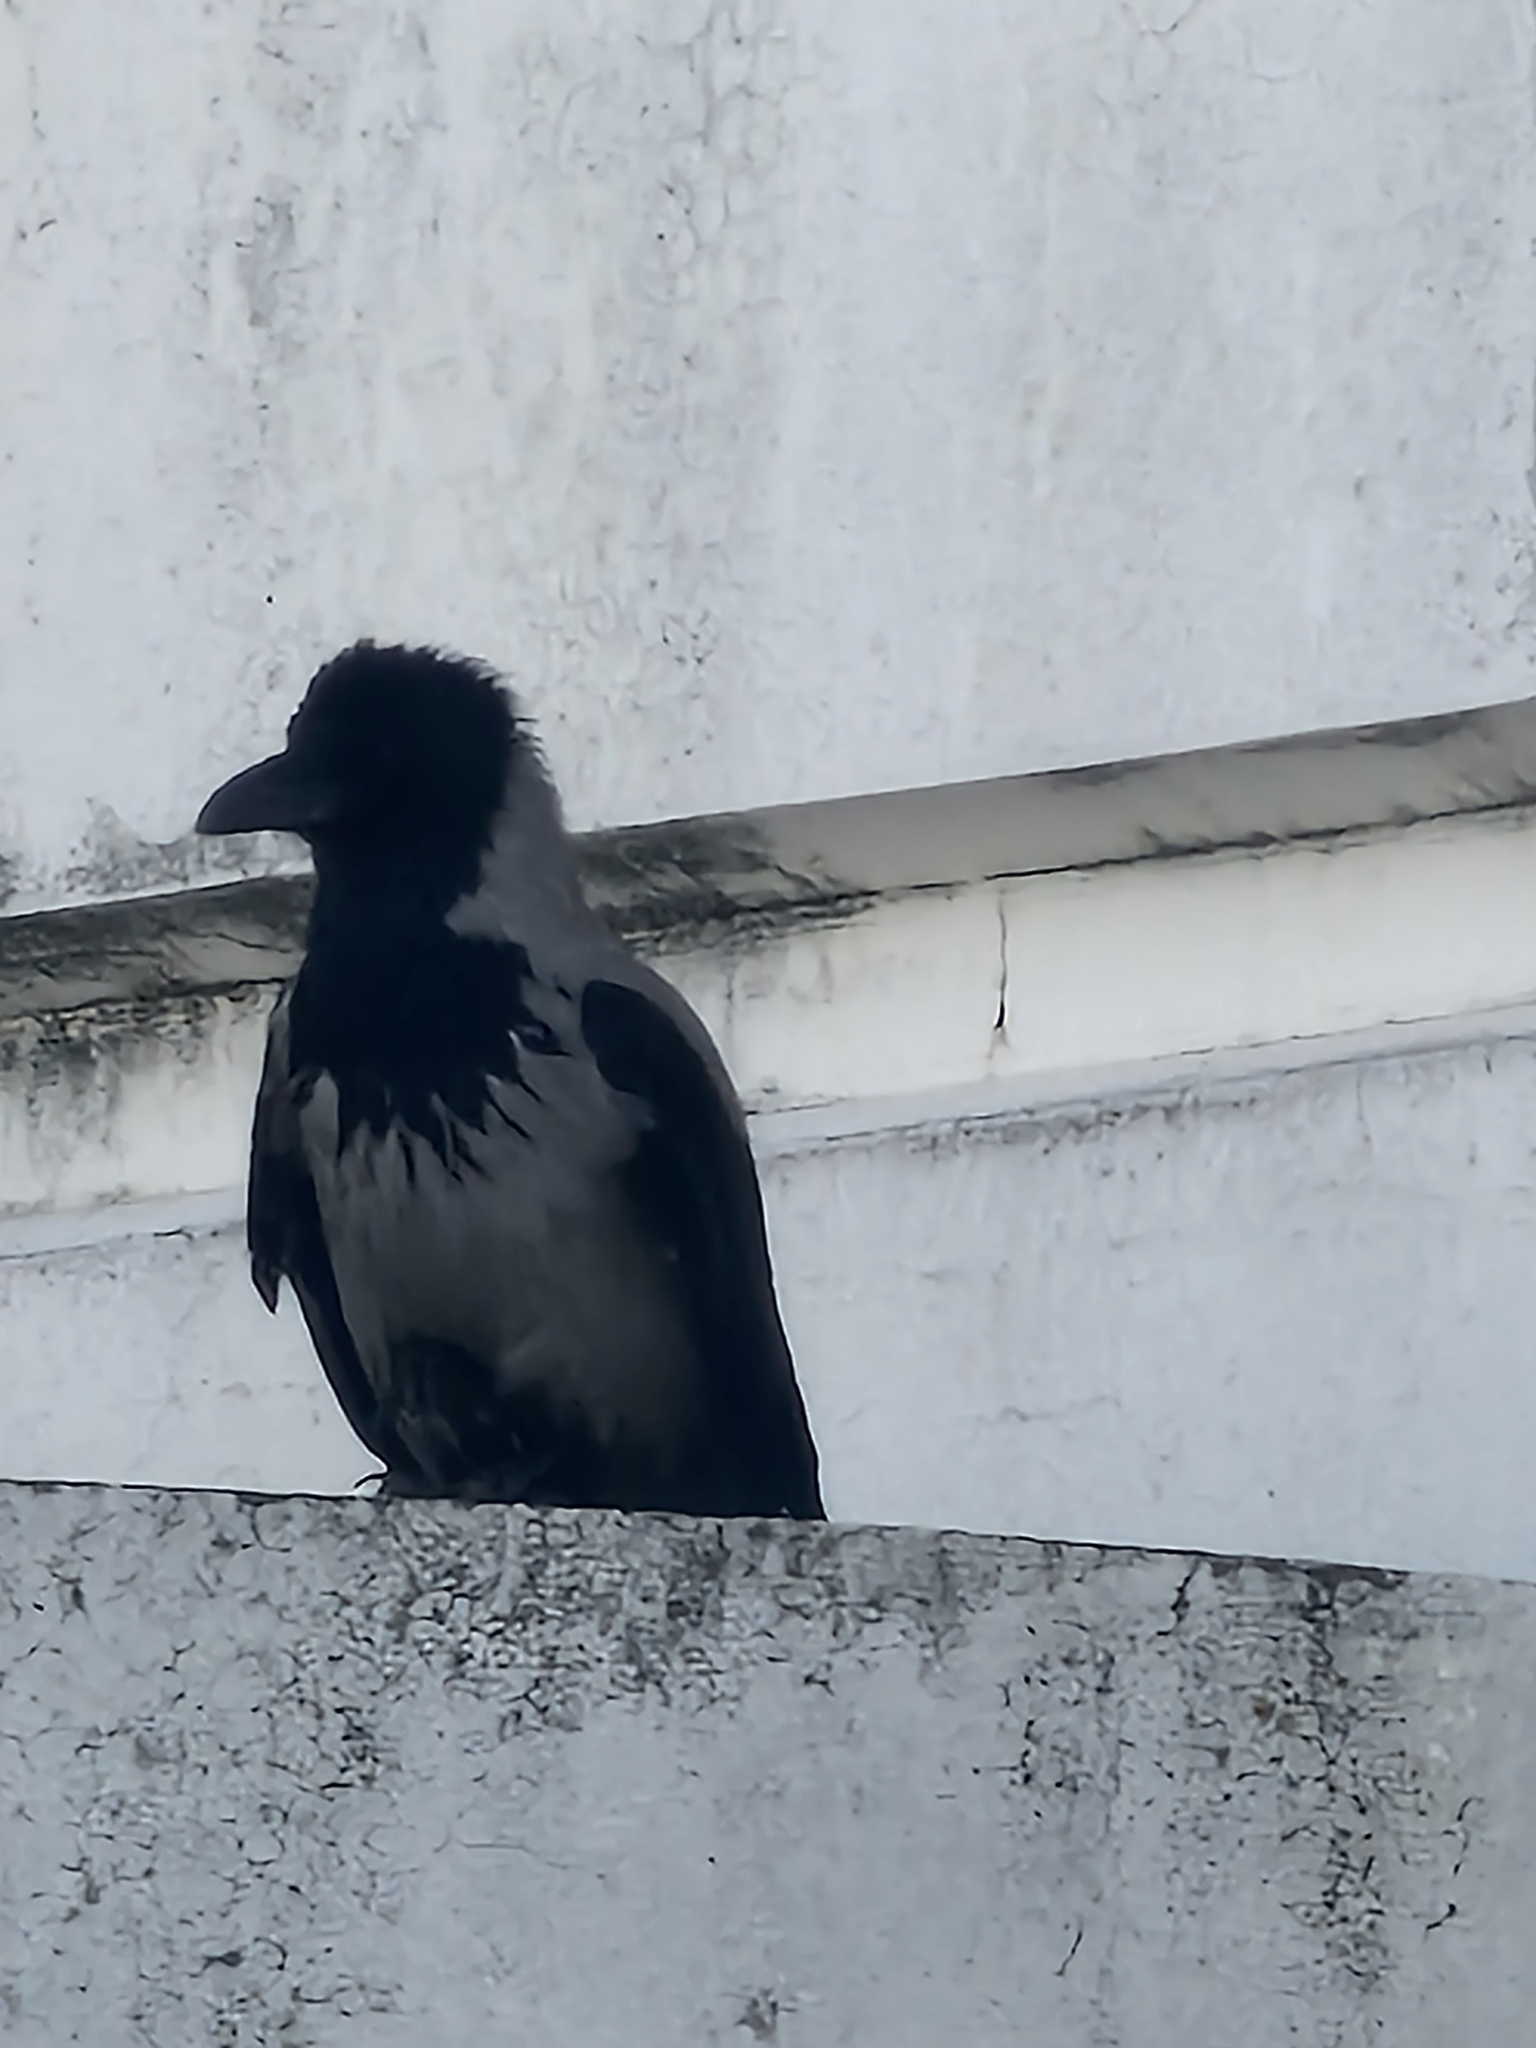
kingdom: Animalia
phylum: Chordata
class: Aves
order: Passeriformes
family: Corvidae
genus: Corvus
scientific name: Corvus cornix
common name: Hooded crow
